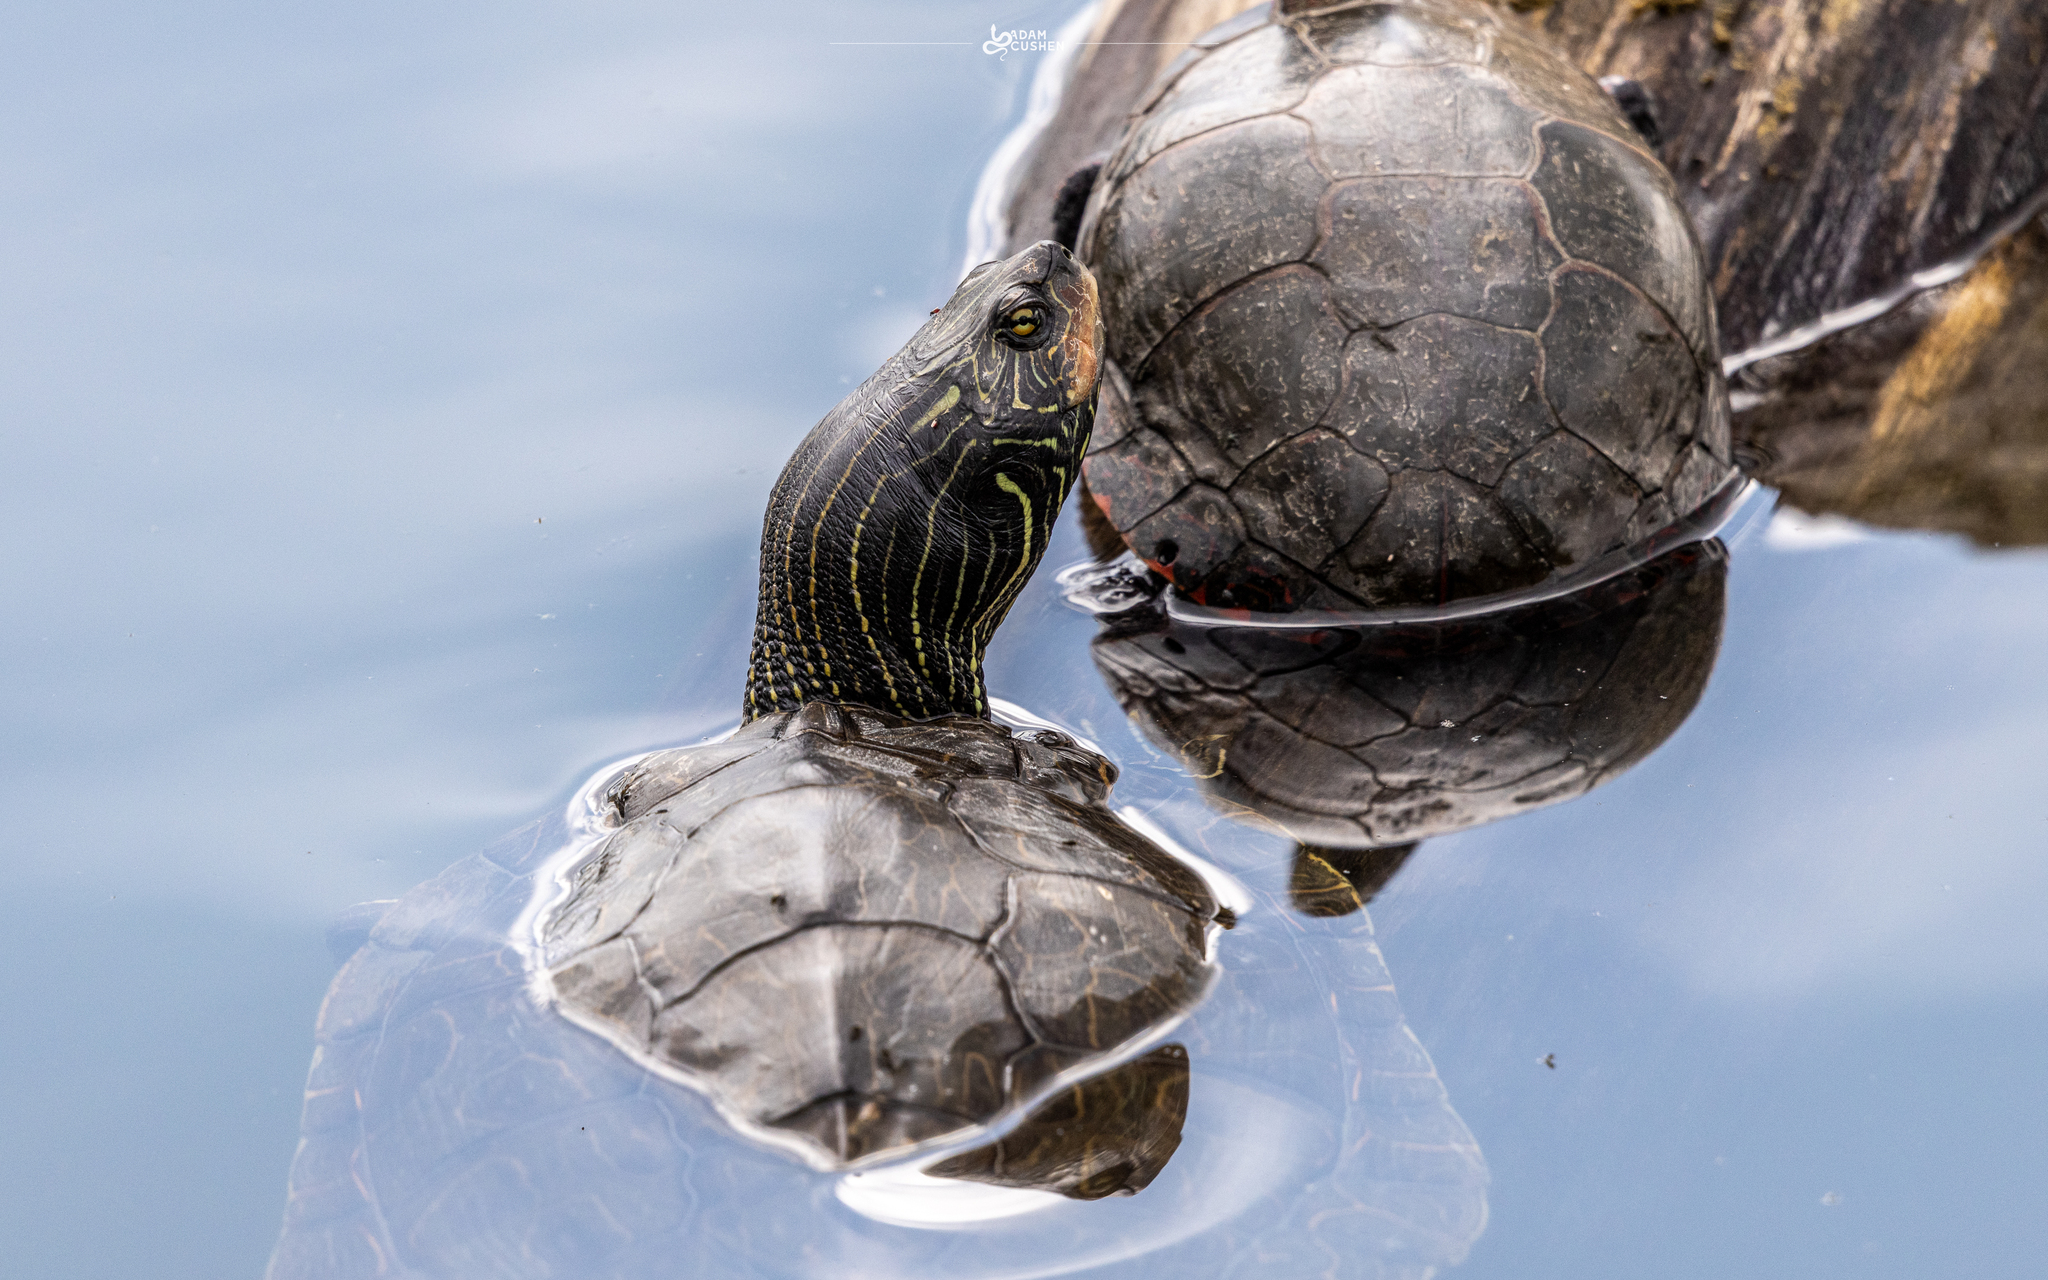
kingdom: Animalia
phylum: Chordata
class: Testudines
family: Emydidae
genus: Graptemys
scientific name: Graptemys geographica
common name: Common map turtle
